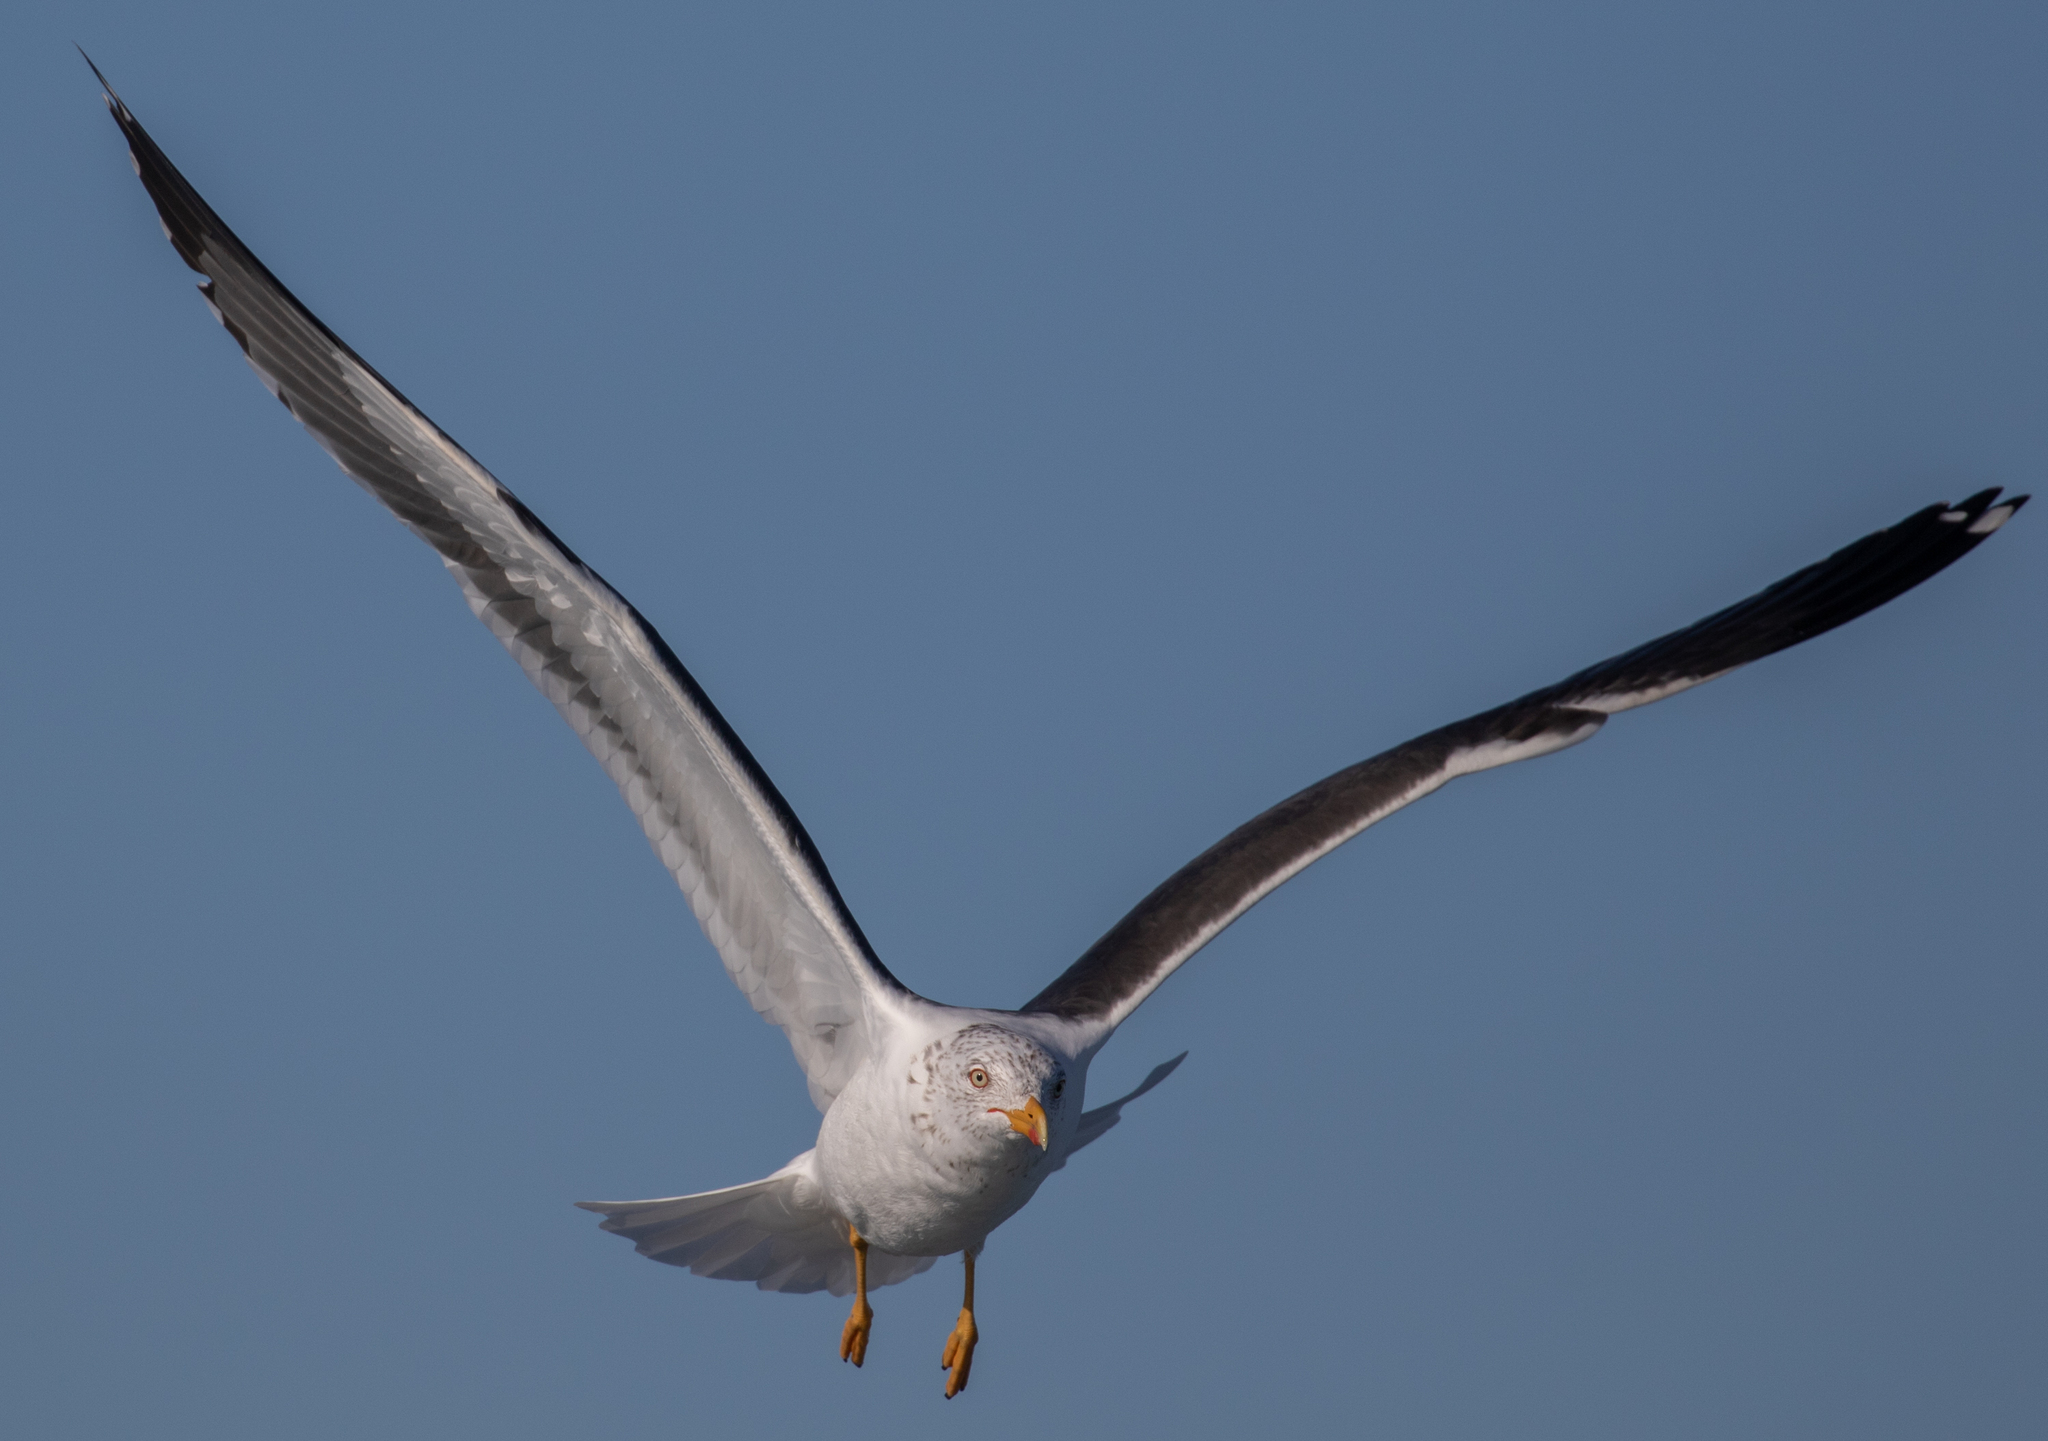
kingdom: Animalia
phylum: Chordata
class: Aves
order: Charadriiformes
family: Laridae
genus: Larus
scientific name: Larus fuscus
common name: Lesser black-backed gull
